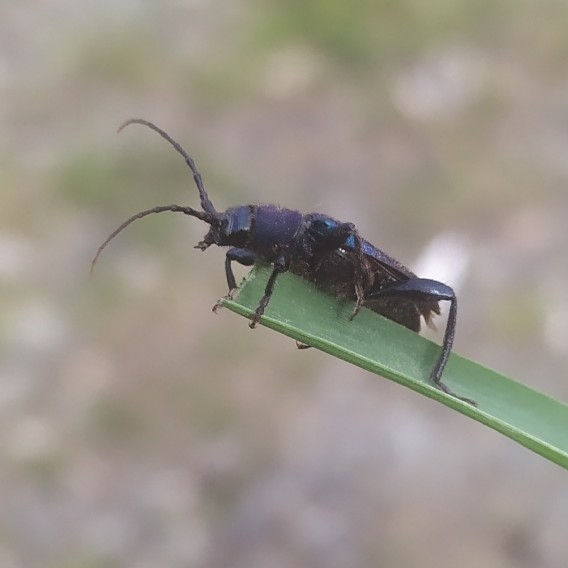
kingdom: Animalia
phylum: Arthropoda
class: Insecta
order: Coleoptera
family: Cerambycidae
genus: Callidium
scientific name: Callidium violaceum
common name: Violet tanbark beetle
